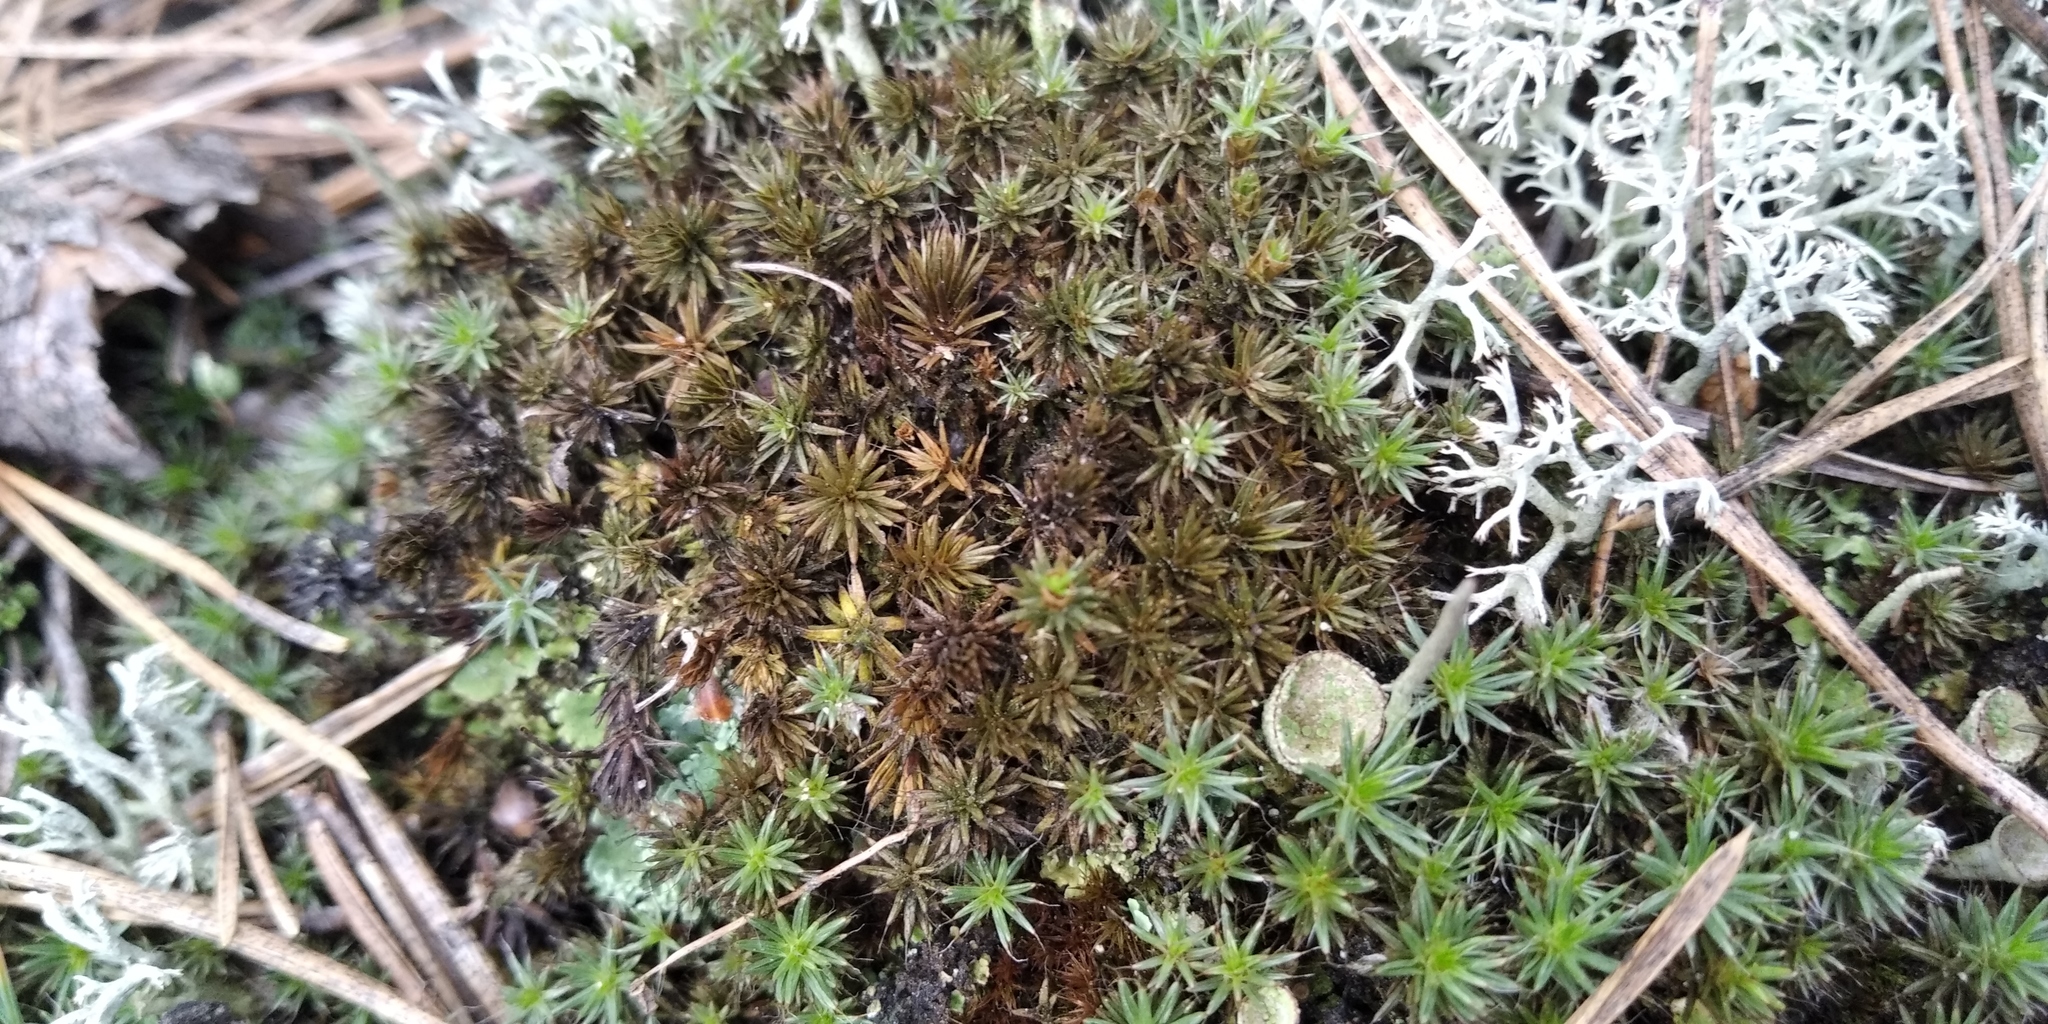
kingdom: Plantae
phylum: Bryophyta
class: Polytrichopsida
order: Polytrichales
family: Polytrichaceae
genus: Polytrichum
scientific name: Polytrichum piliferum
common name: Bristly haircap
